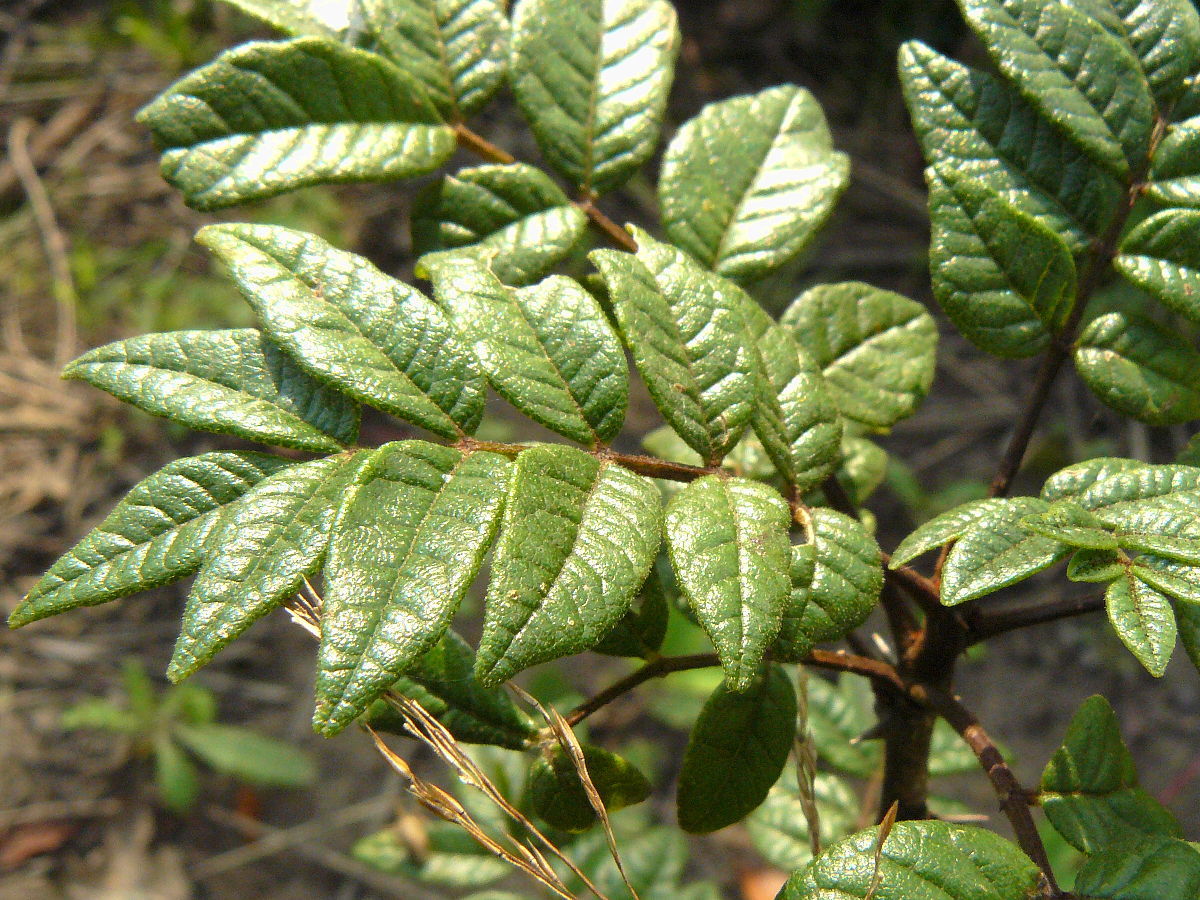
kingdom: Plantae
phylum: Tracheophyta
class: Magnoliopsida
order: Sapindales
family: Rutaceae
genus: Zanthoxylum
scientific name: Zanthoxylum americanum
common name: Northern prickly-ash
